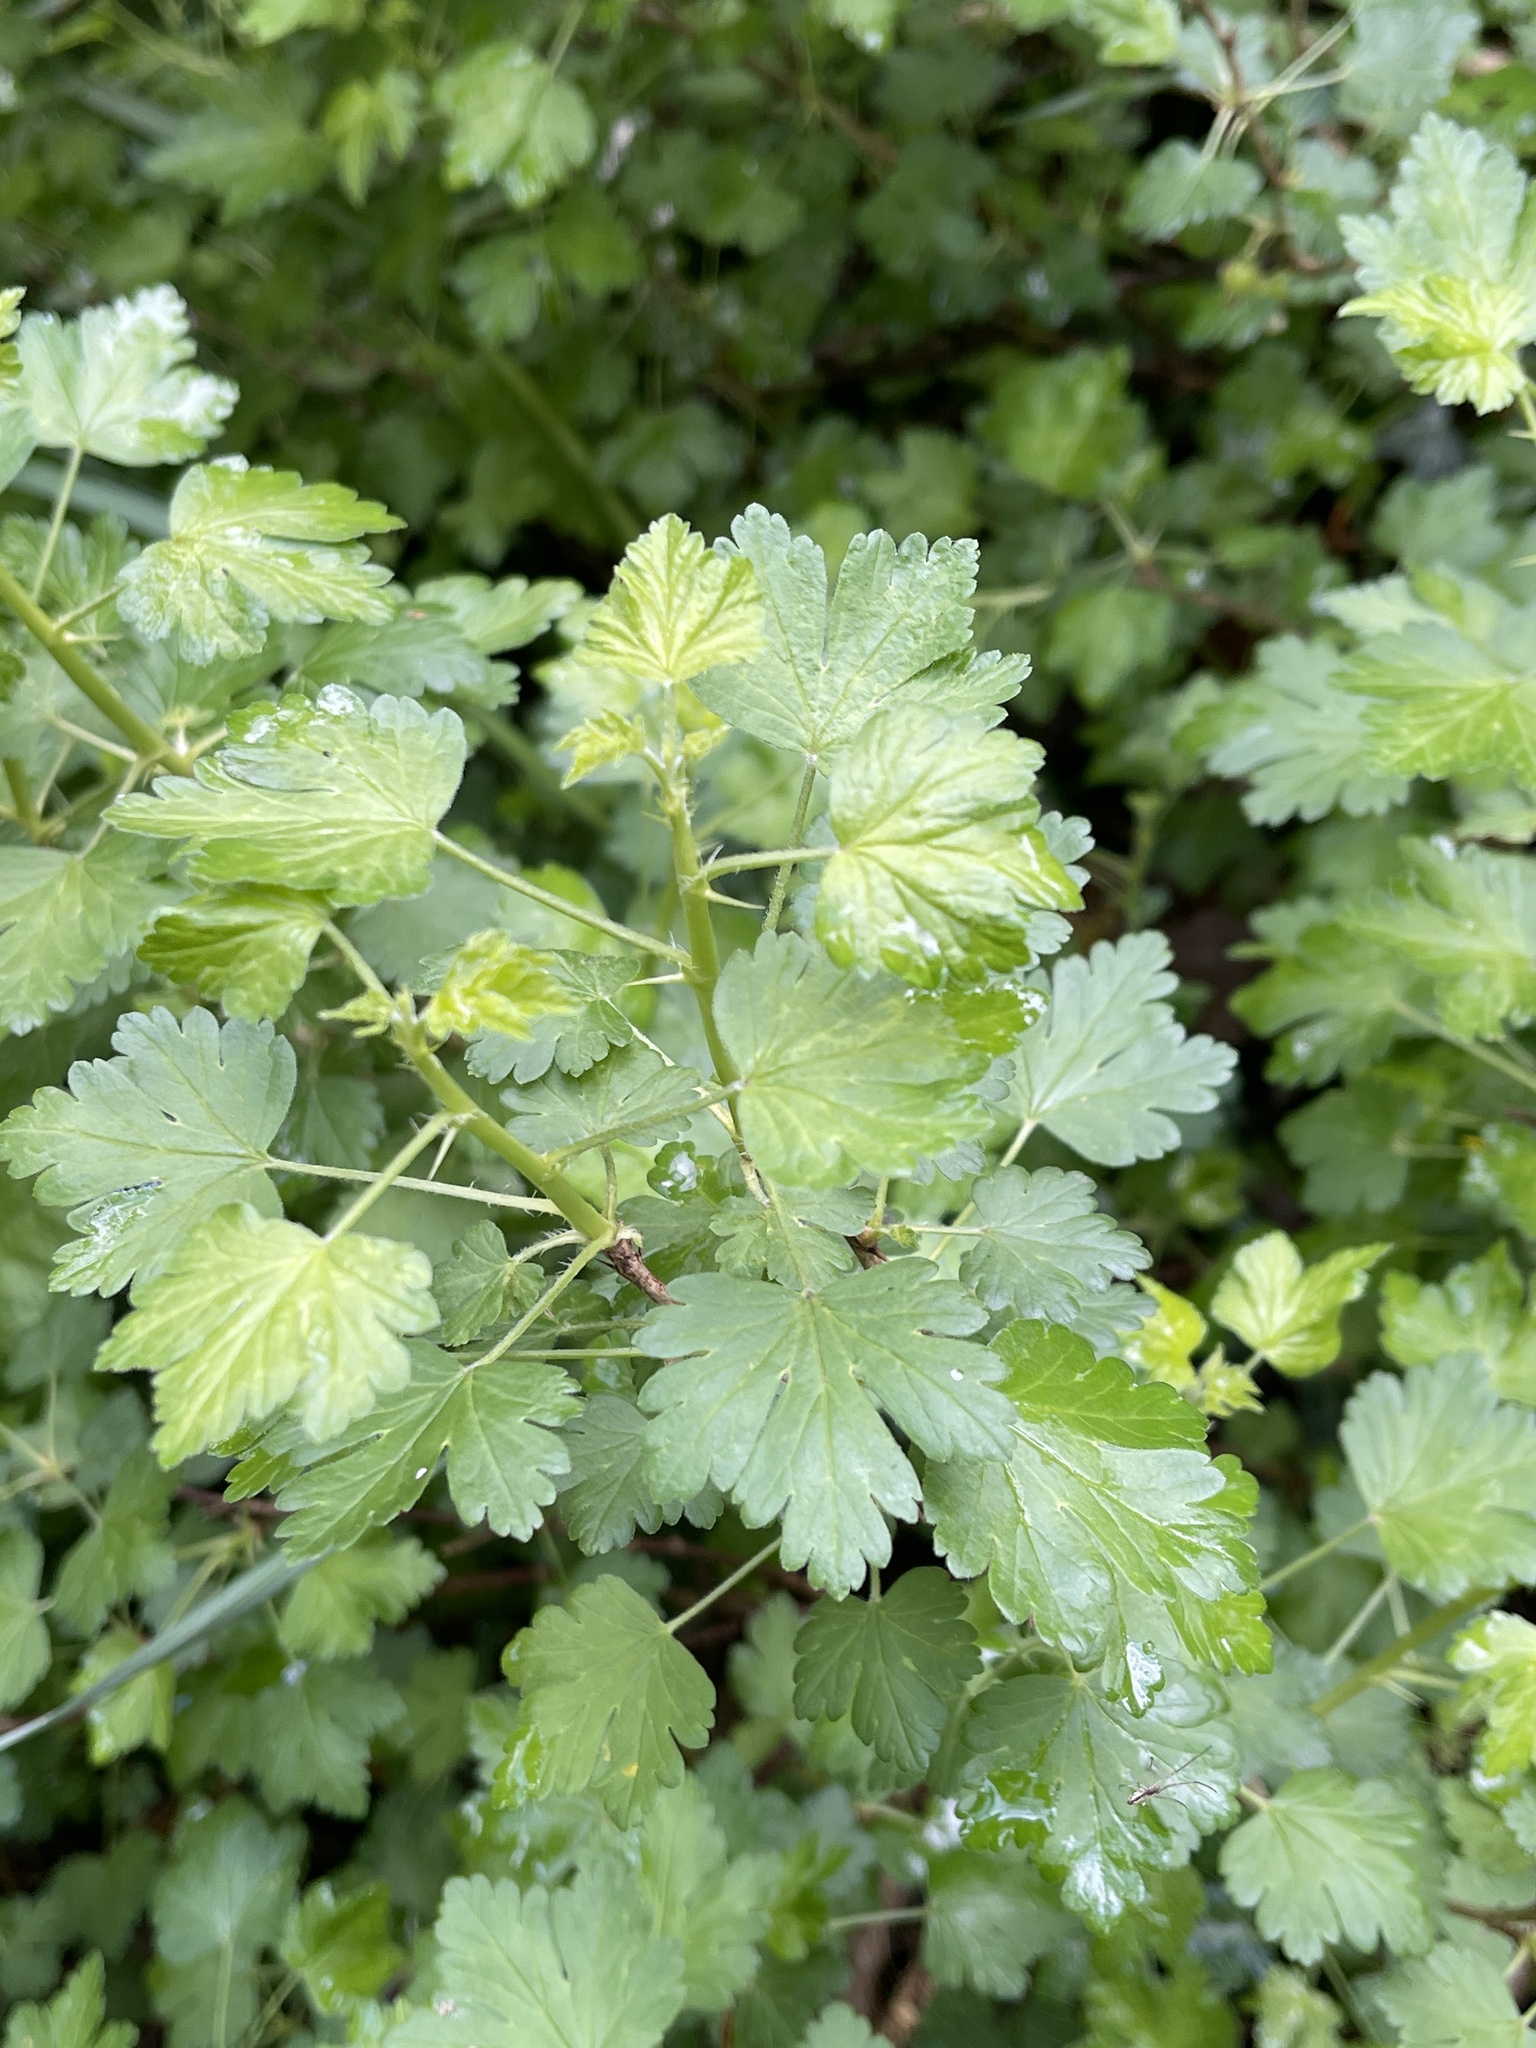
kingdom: Plantae
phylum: Tracheophyta
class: Magnoliopsida
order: Saxifragales
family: Grossulariaceae
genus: Ribes
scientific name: Ribes uva-crispa
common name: Gooseberry
